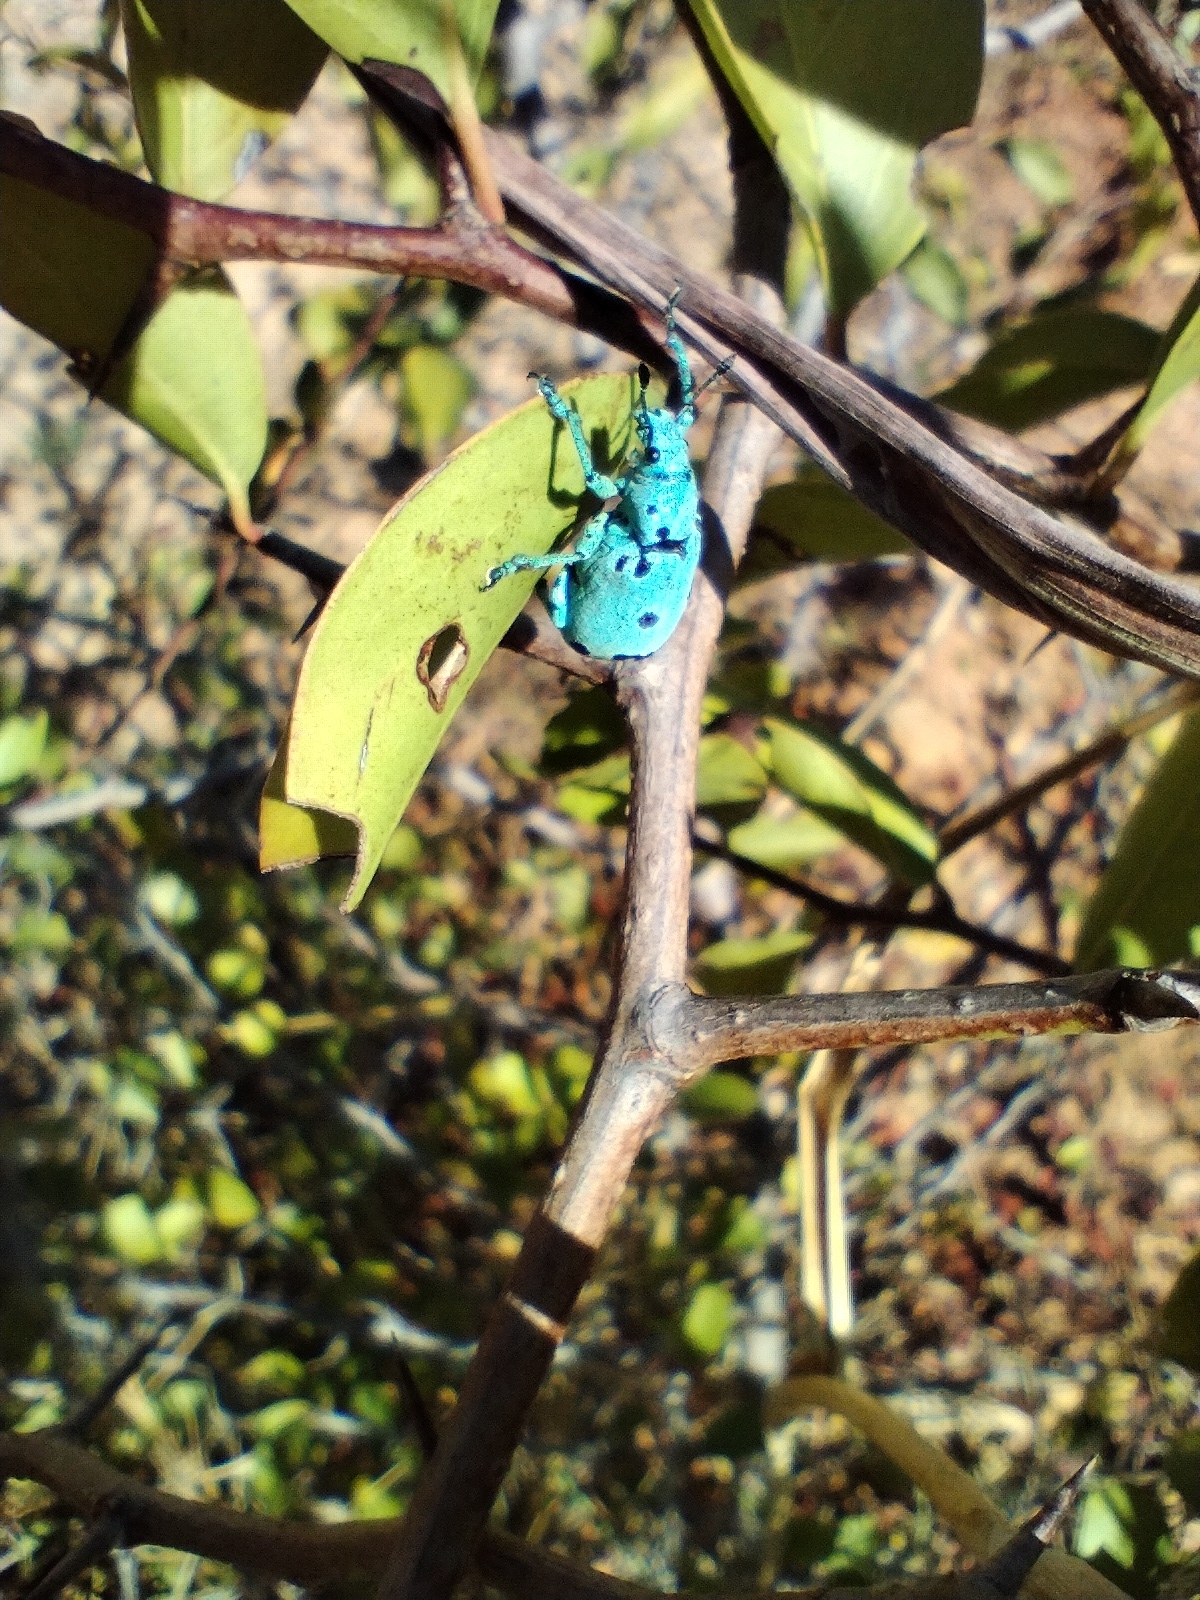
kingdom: Animalia
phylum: Arthropoda
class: Insecta
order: Coleoptera
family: Curculionidae
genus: Ericydeus
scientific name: Ericydeus sedecimpunctatus
